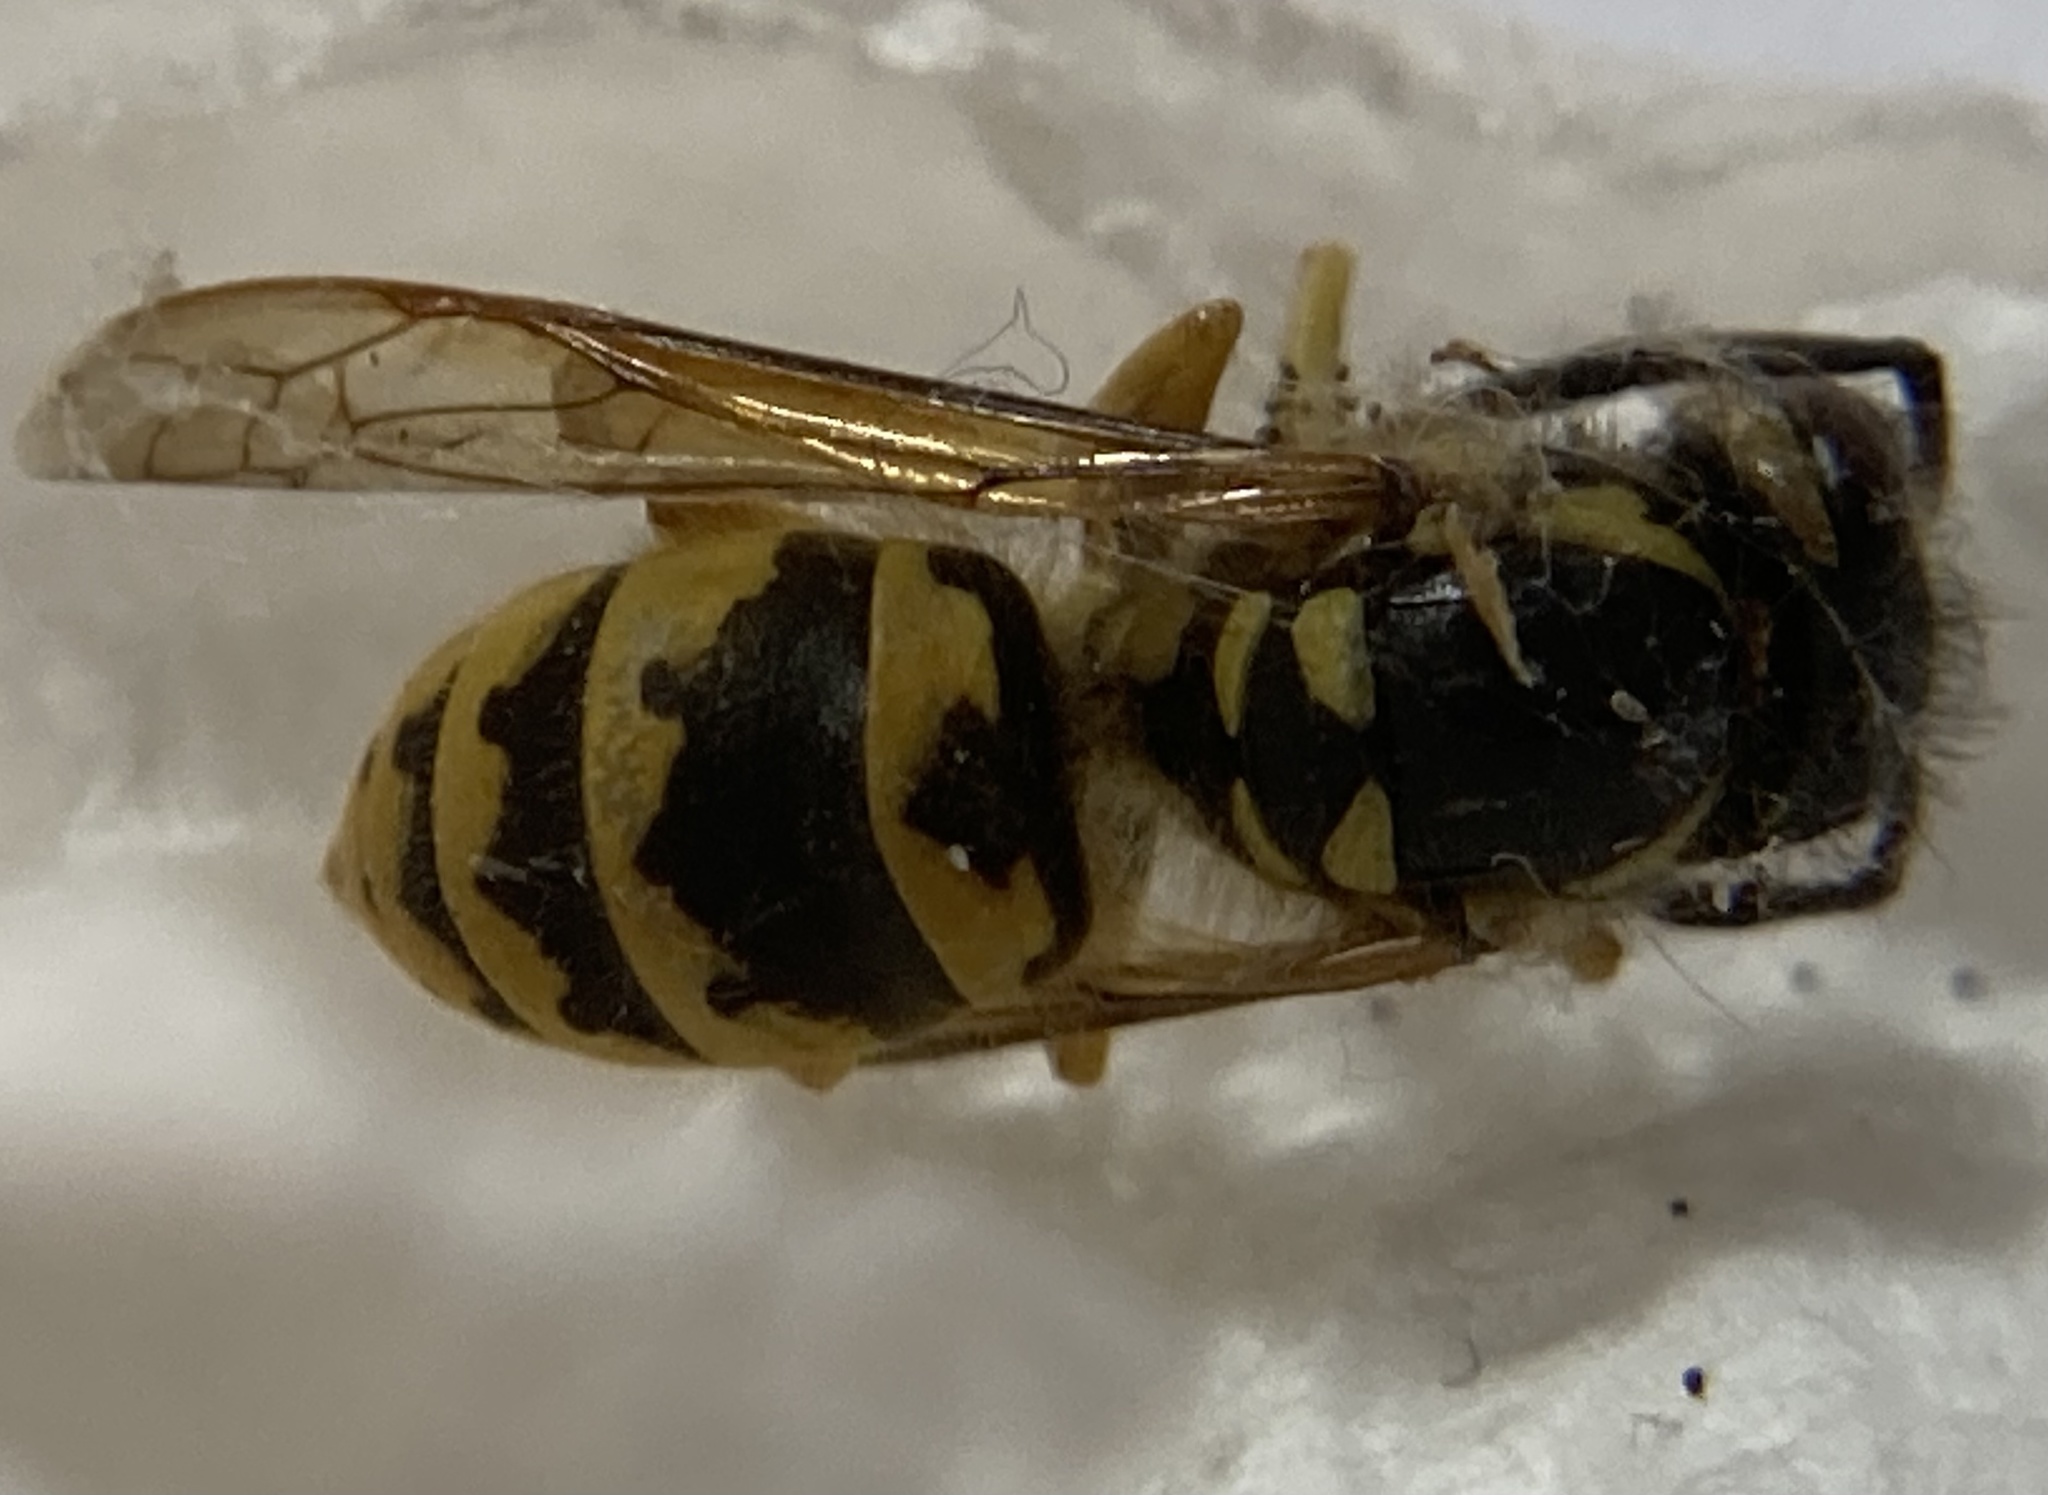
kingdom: Animalia
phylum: Arthropoda
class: Insecta
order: Hymenoptera
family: Vespidae
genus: Vespula
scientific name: Vespula germanica
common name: German wasp
